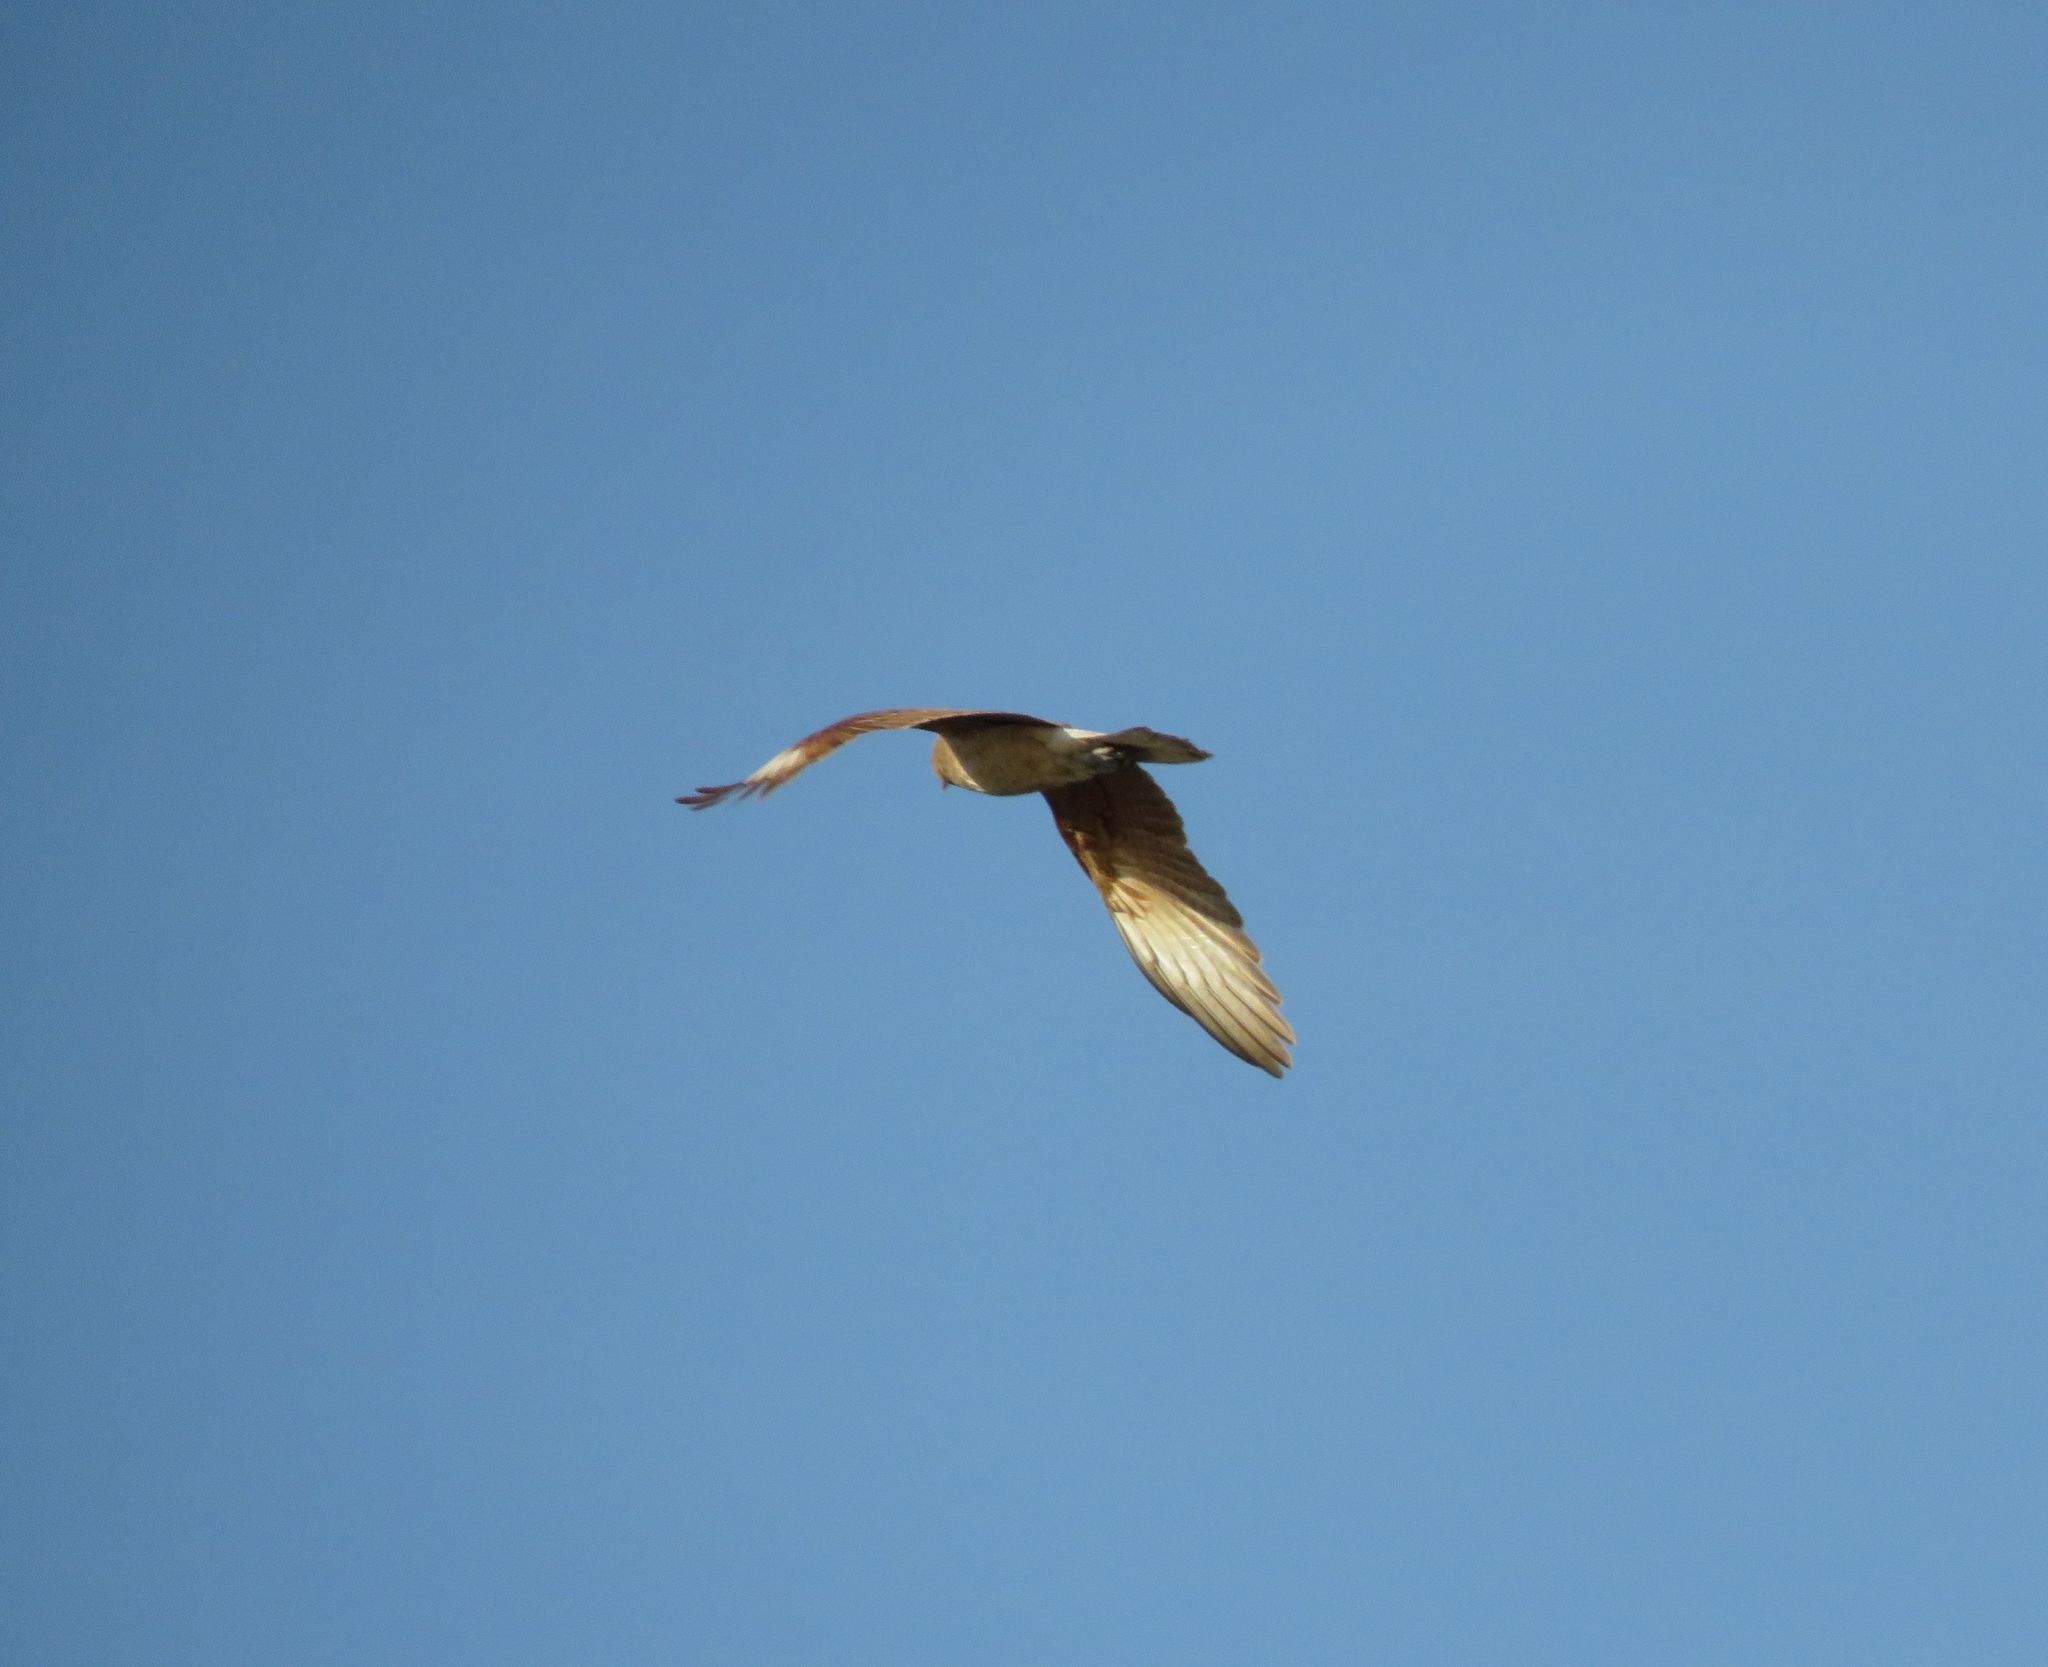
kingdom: Animalia
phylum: Chordata
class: Aves
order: Falconiformes
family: Falconidae
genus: Daptrius
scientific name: Daptrius
